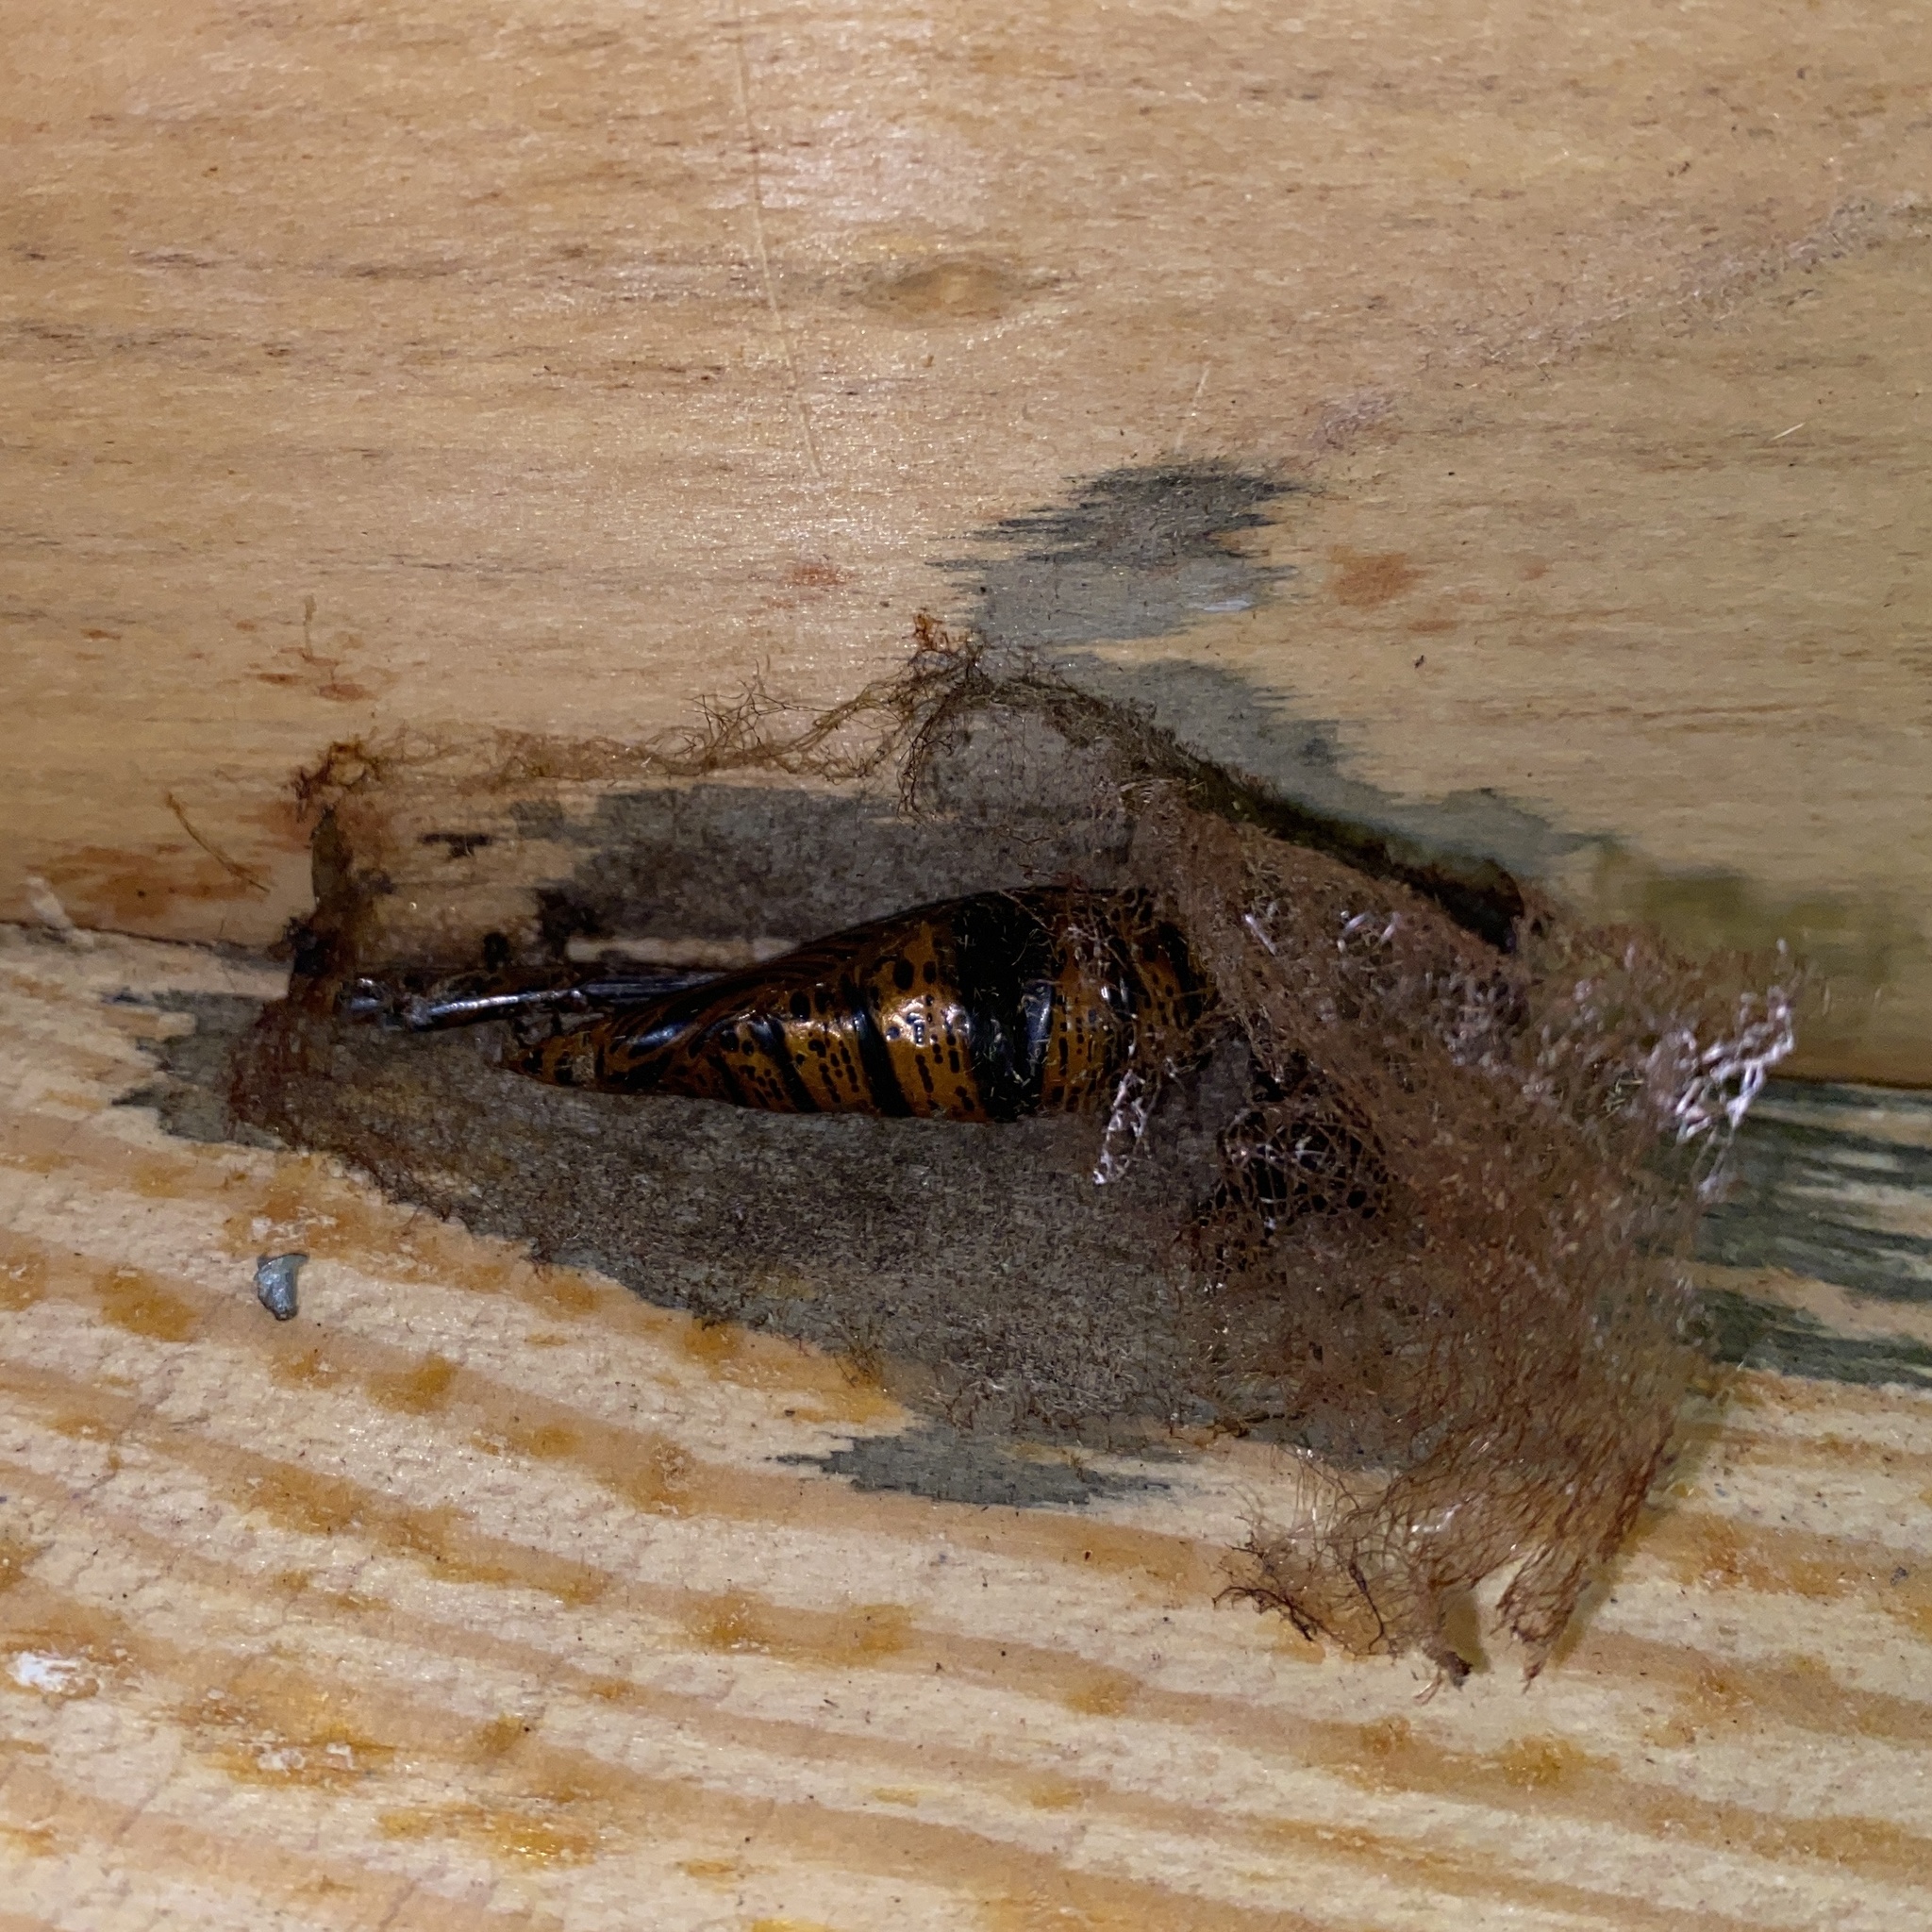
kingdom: Animalia
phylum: Arthropoda
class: Insecta
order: Lepidoptera
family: Erebidae
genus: Letis
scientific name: Letis iphianasse
